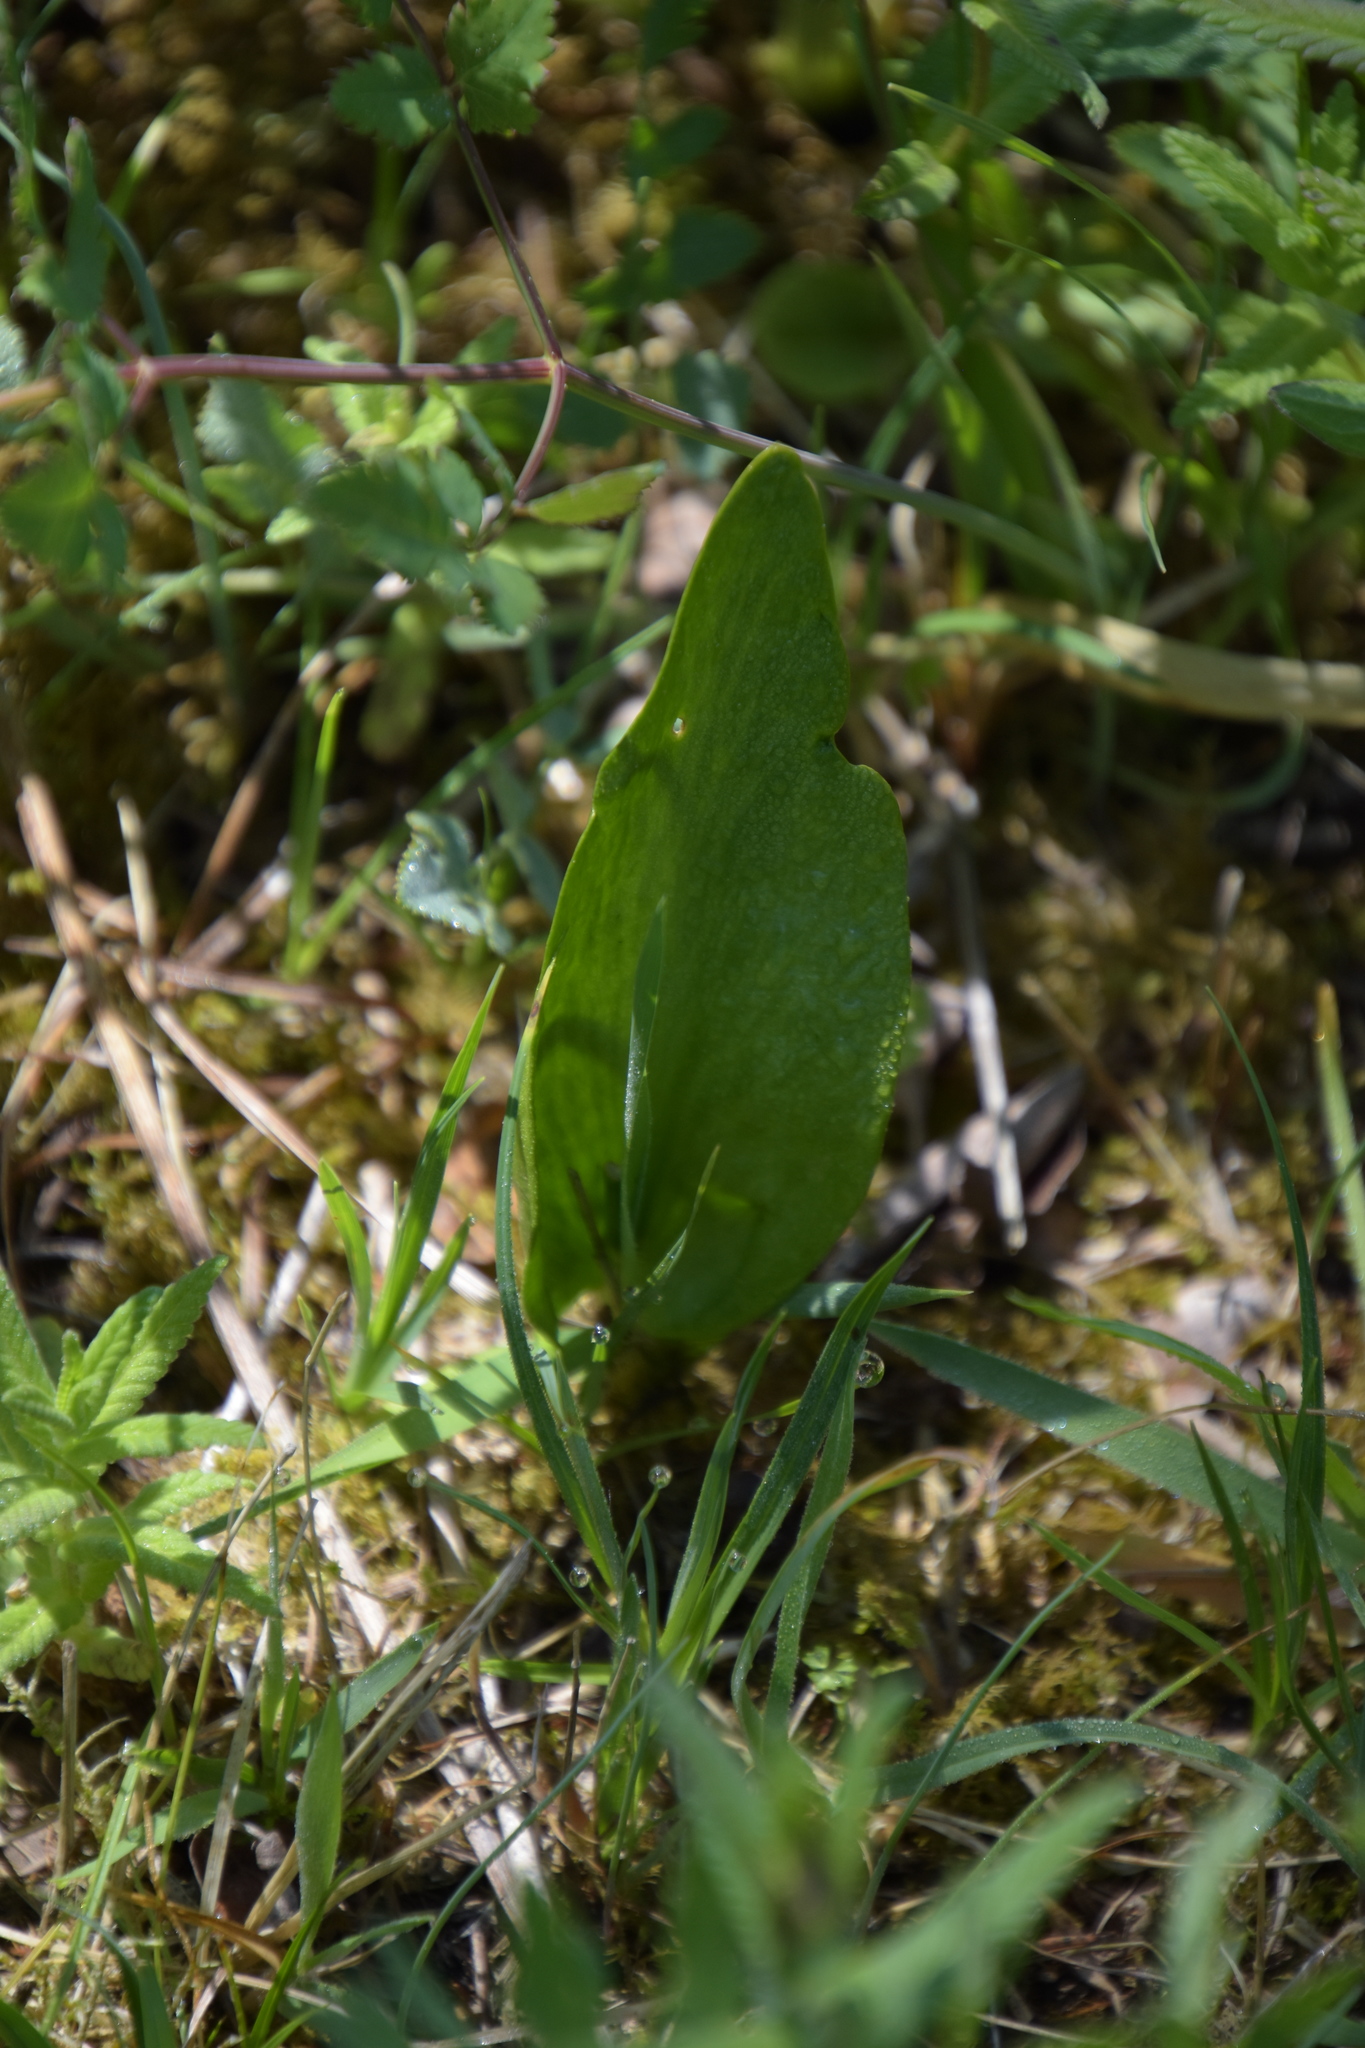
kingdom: Plantae
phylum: Tracheophyta
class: Polypodiopsida
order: Ophioglossales
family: Ophioglossaceae
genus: Ophioglossum
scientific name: Ophioglossum vulgatum
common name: Adder's-tongue
